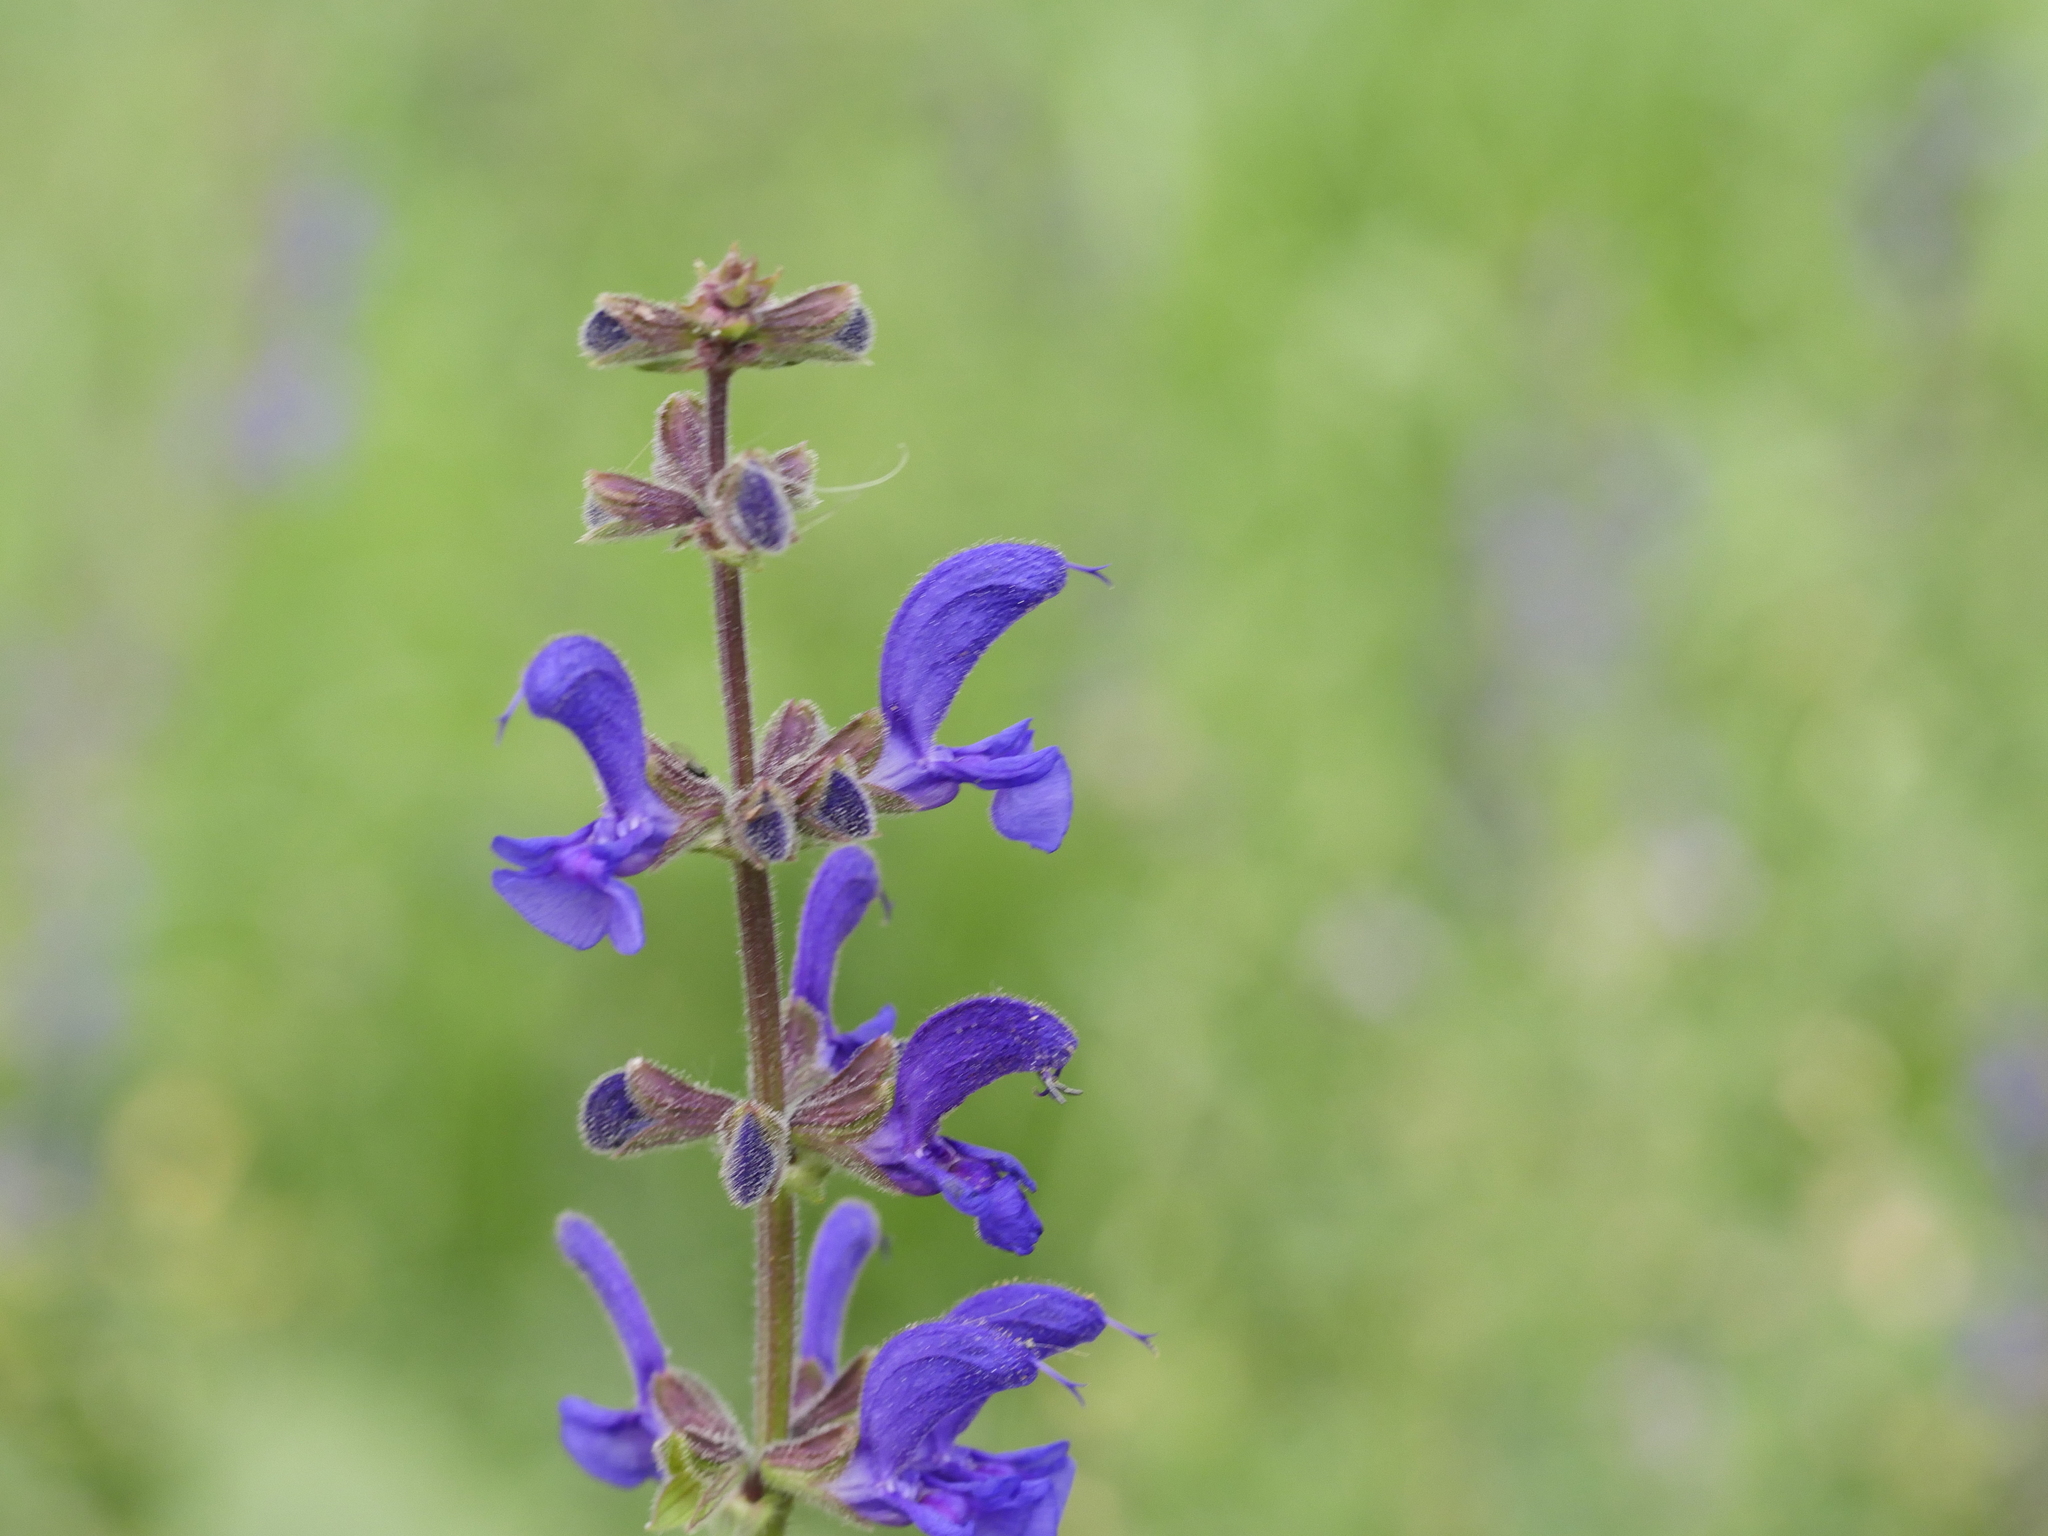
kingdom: Plantae
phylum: Tracheophyta
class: Magnoliopsida
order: Lamiales
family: Lamiaceae
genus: Salvia
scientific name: Salvia pratensis
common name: Meadow sage
